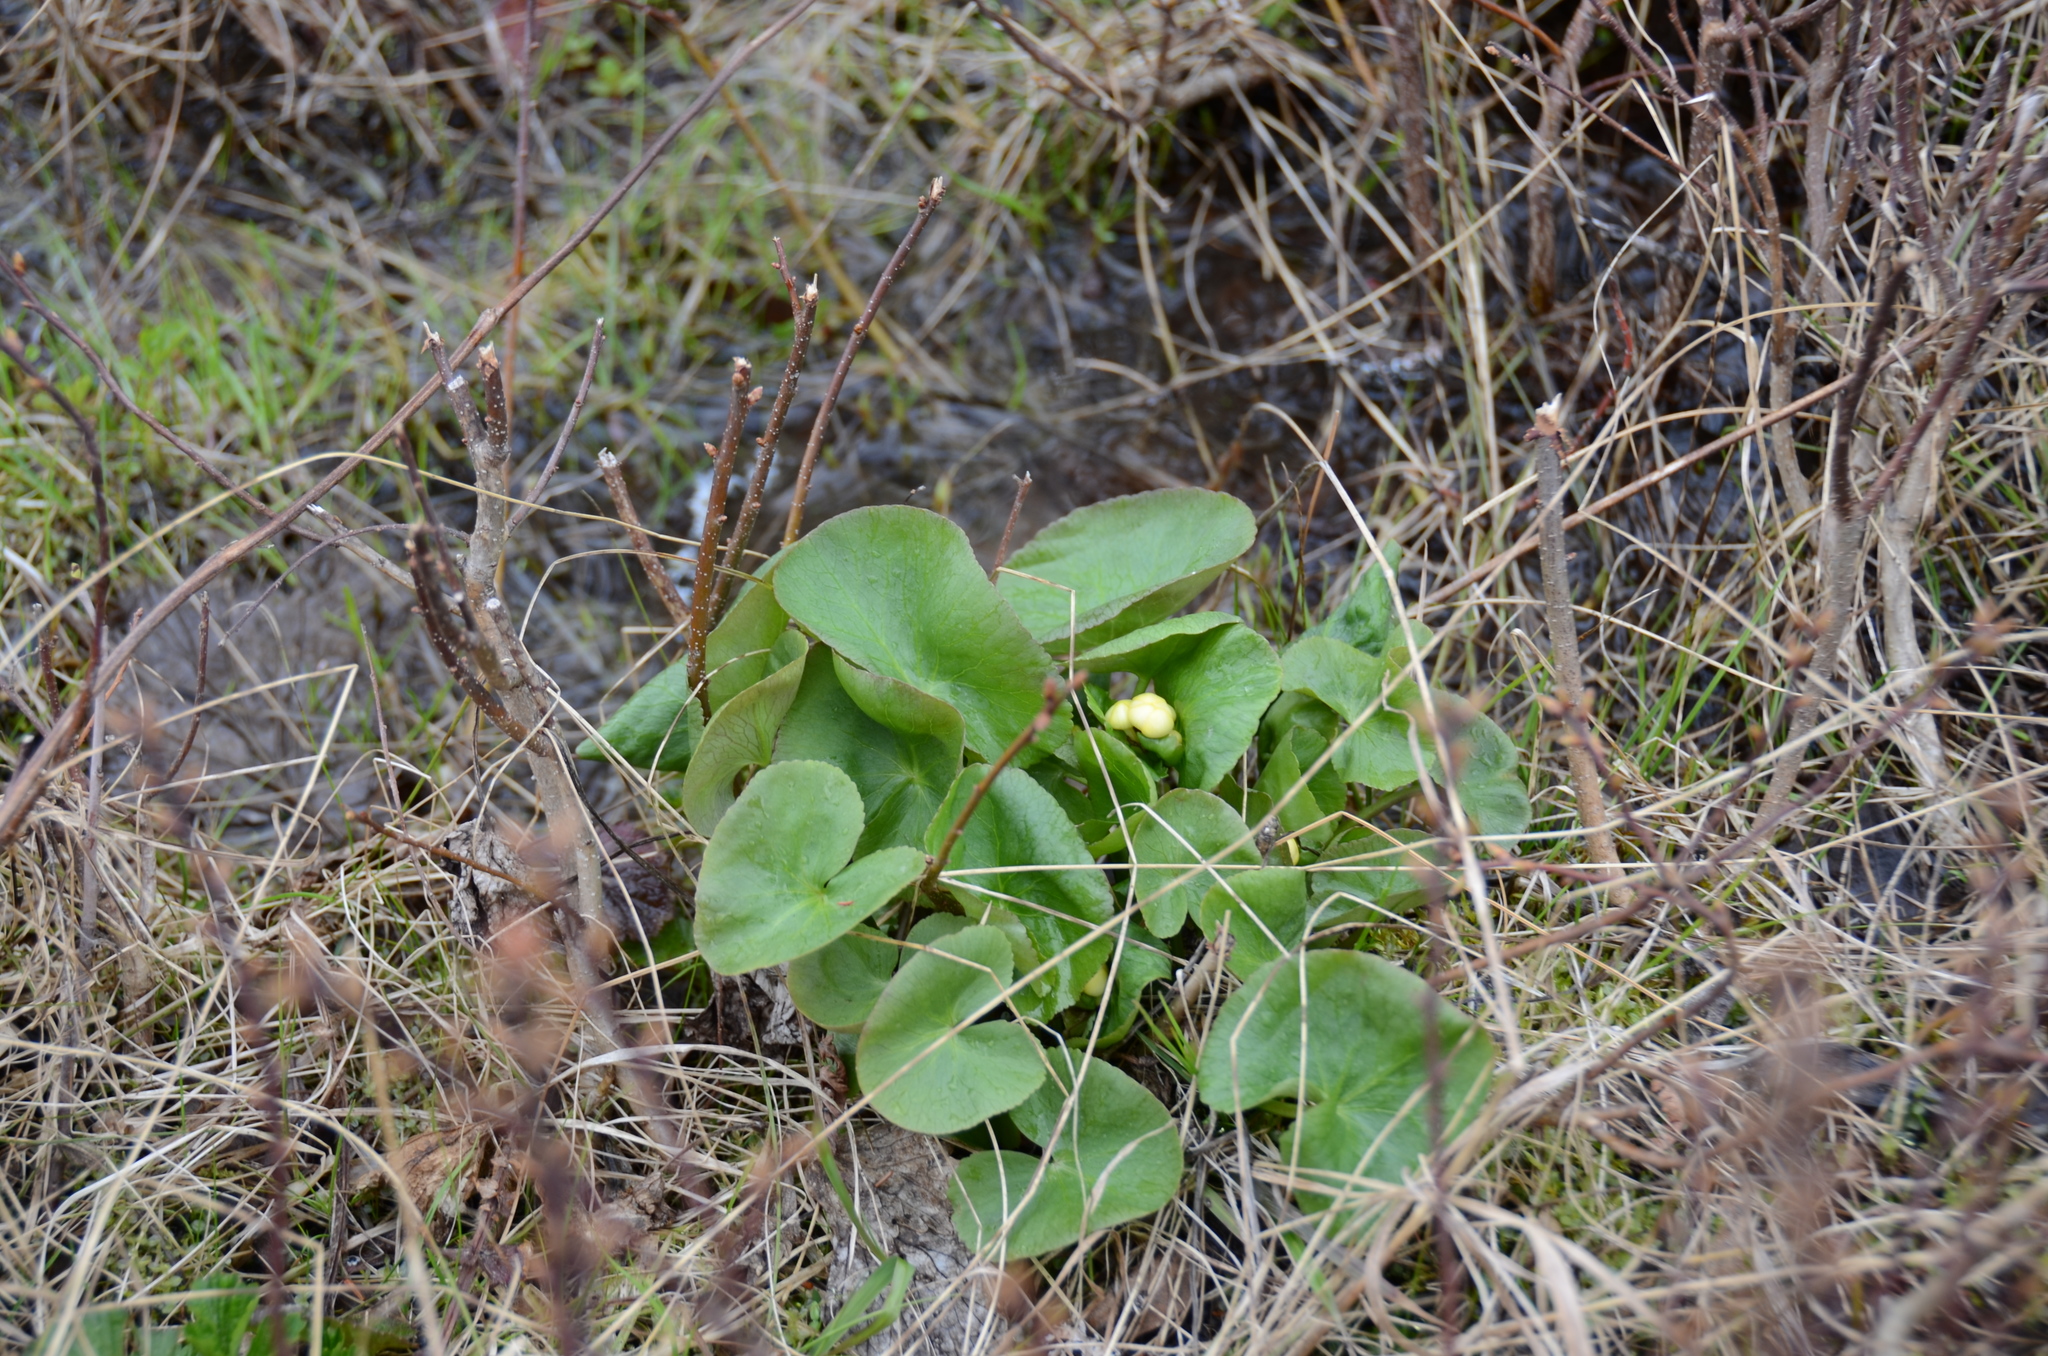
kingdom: Plantae
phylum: Tracheophyta
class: Magnoliopsida
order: Ranunculales
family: Ranunculaceae
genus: Caltha
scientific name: Caltha palustris
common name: Marsh marigold
